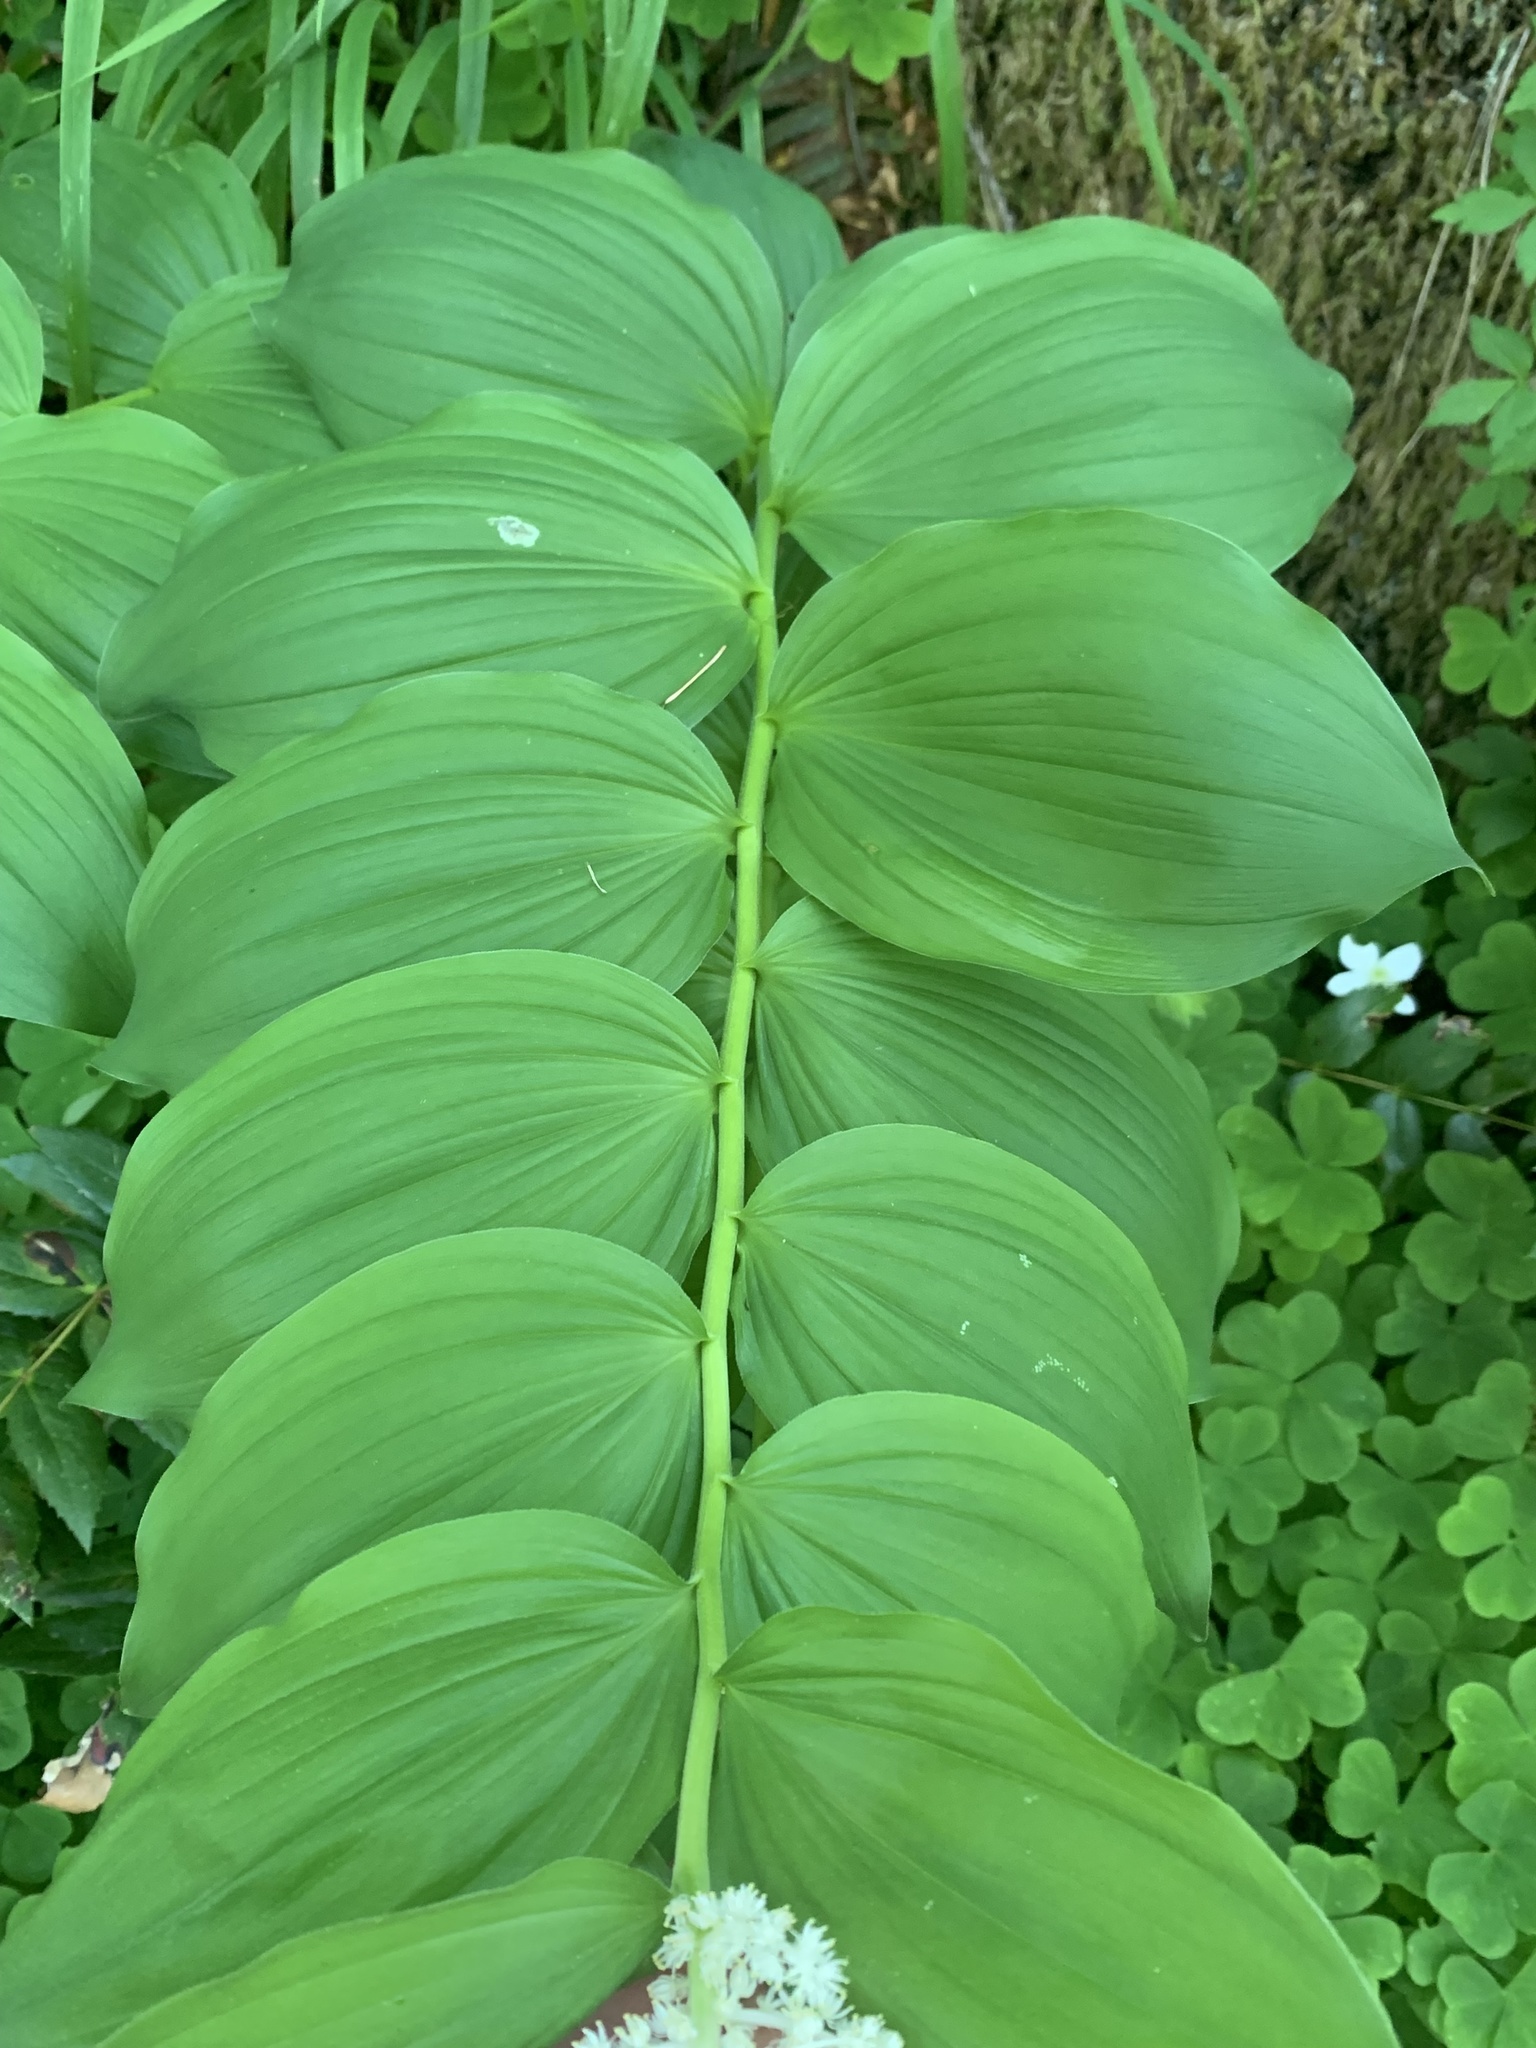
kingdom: Plantae
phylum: Tracheophyta
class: Liliopsida
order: Asparagales
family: Asparagaceae
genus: Maianthemum
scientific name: Maianthemum racemosum
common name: False spikenard
